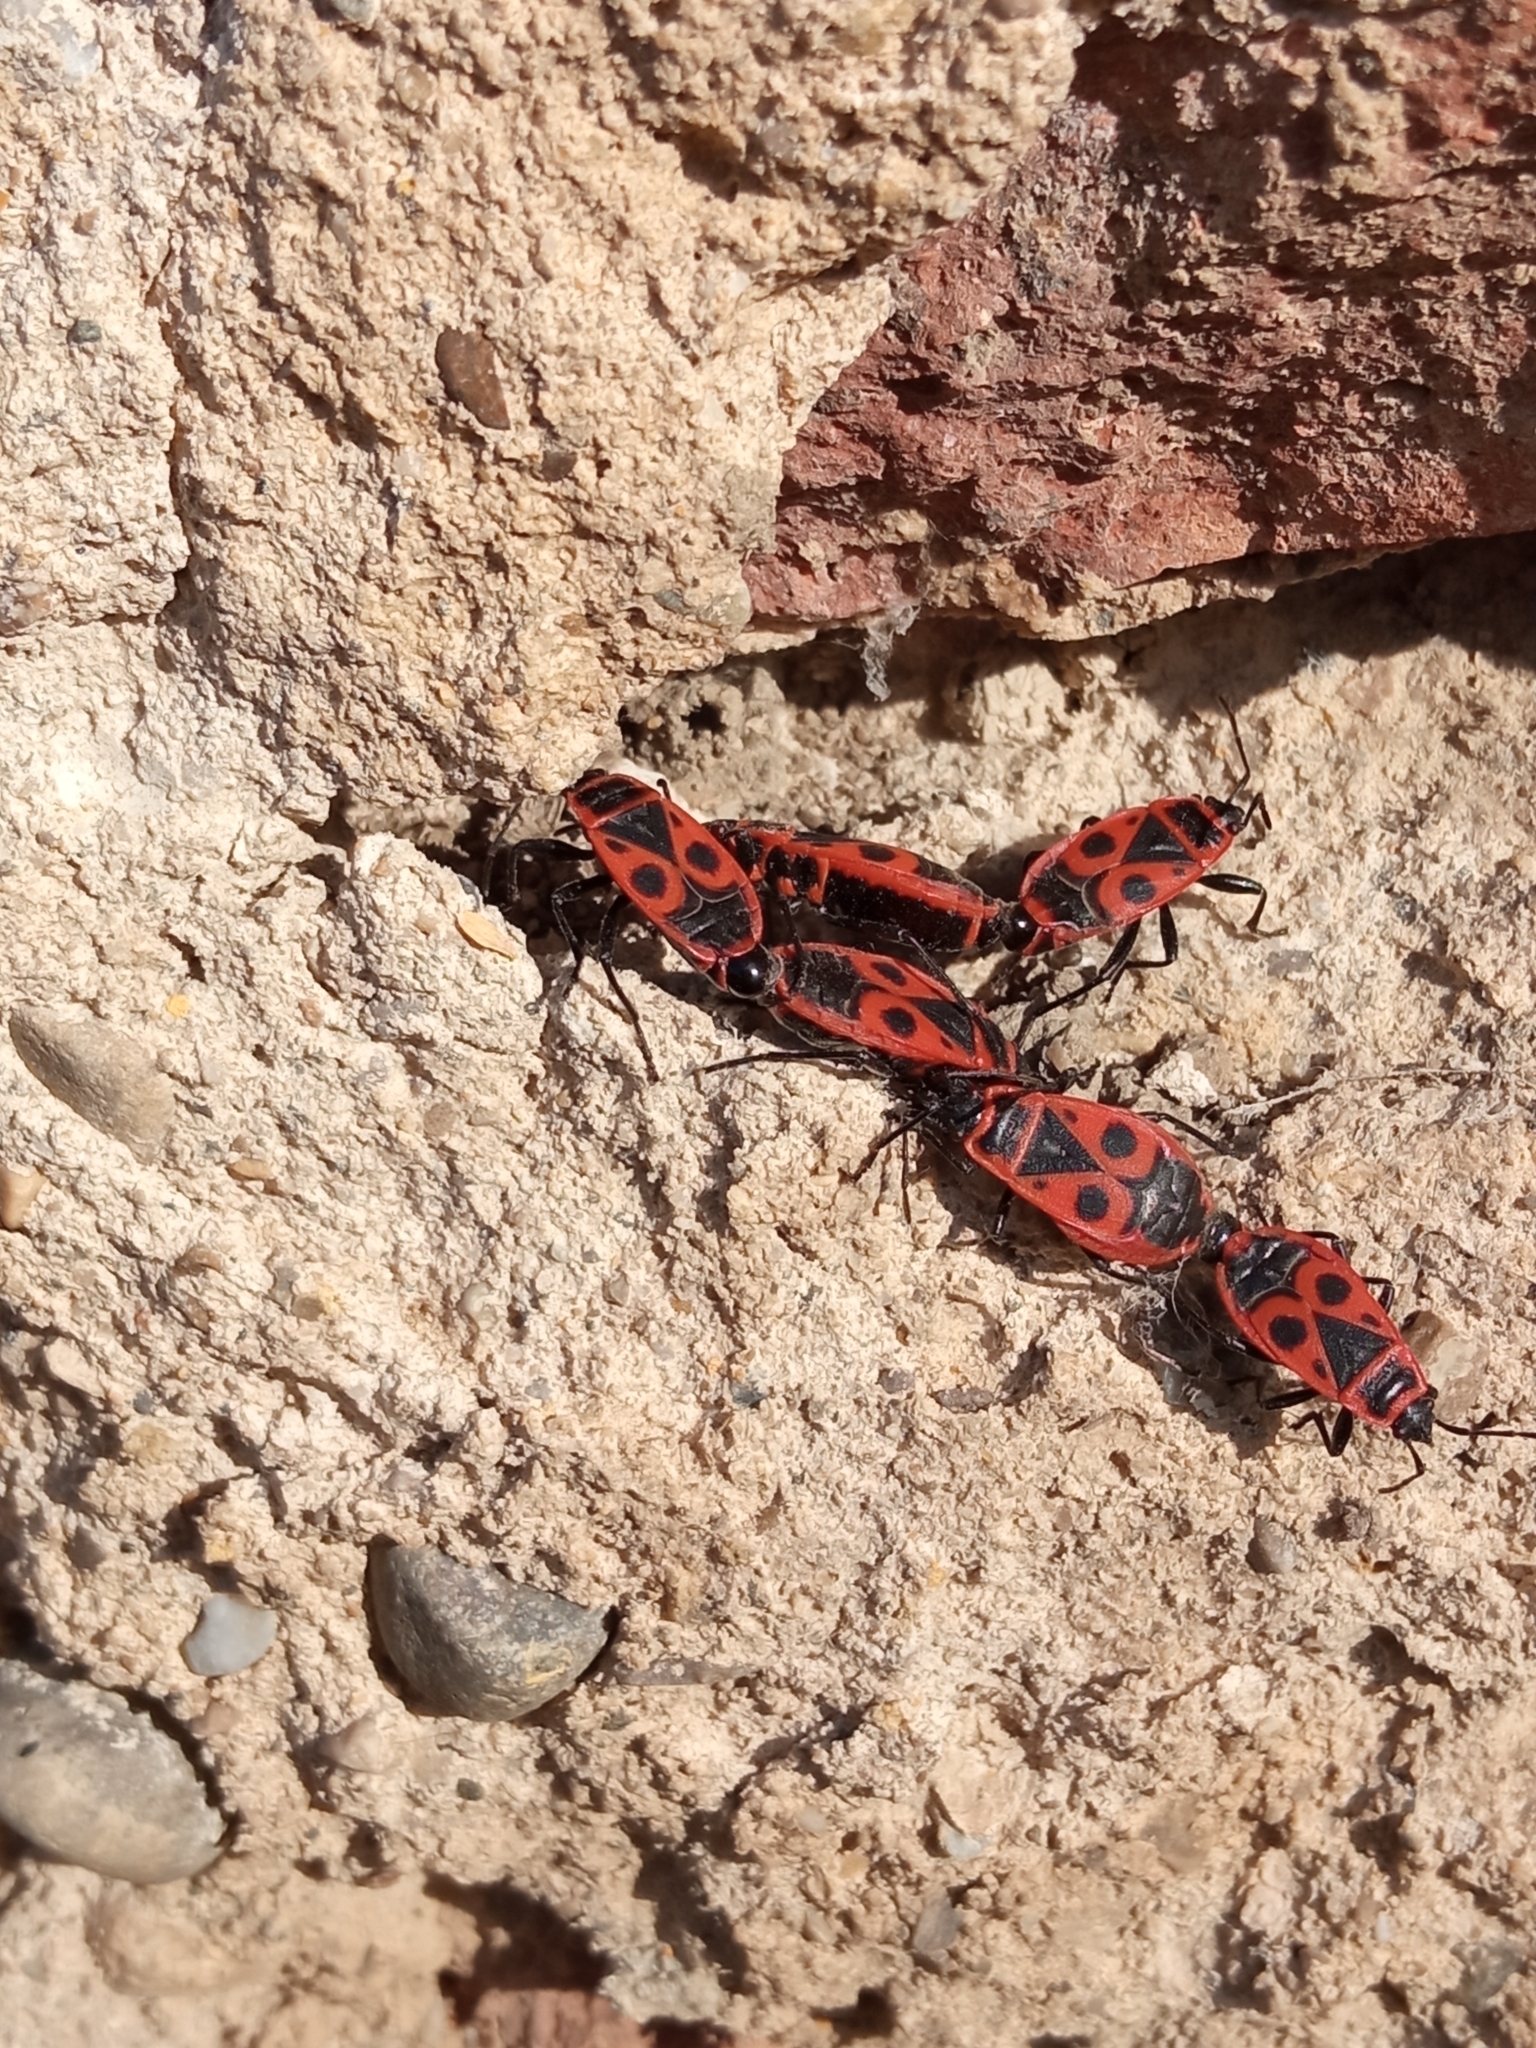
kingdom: Animalia
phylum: Arthropoda
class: Insecta
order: Hemiptera
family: Pyrrhocoridae
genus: Pyrrhocoris
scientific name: Pyrrhocoris apterus
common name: Firebug
